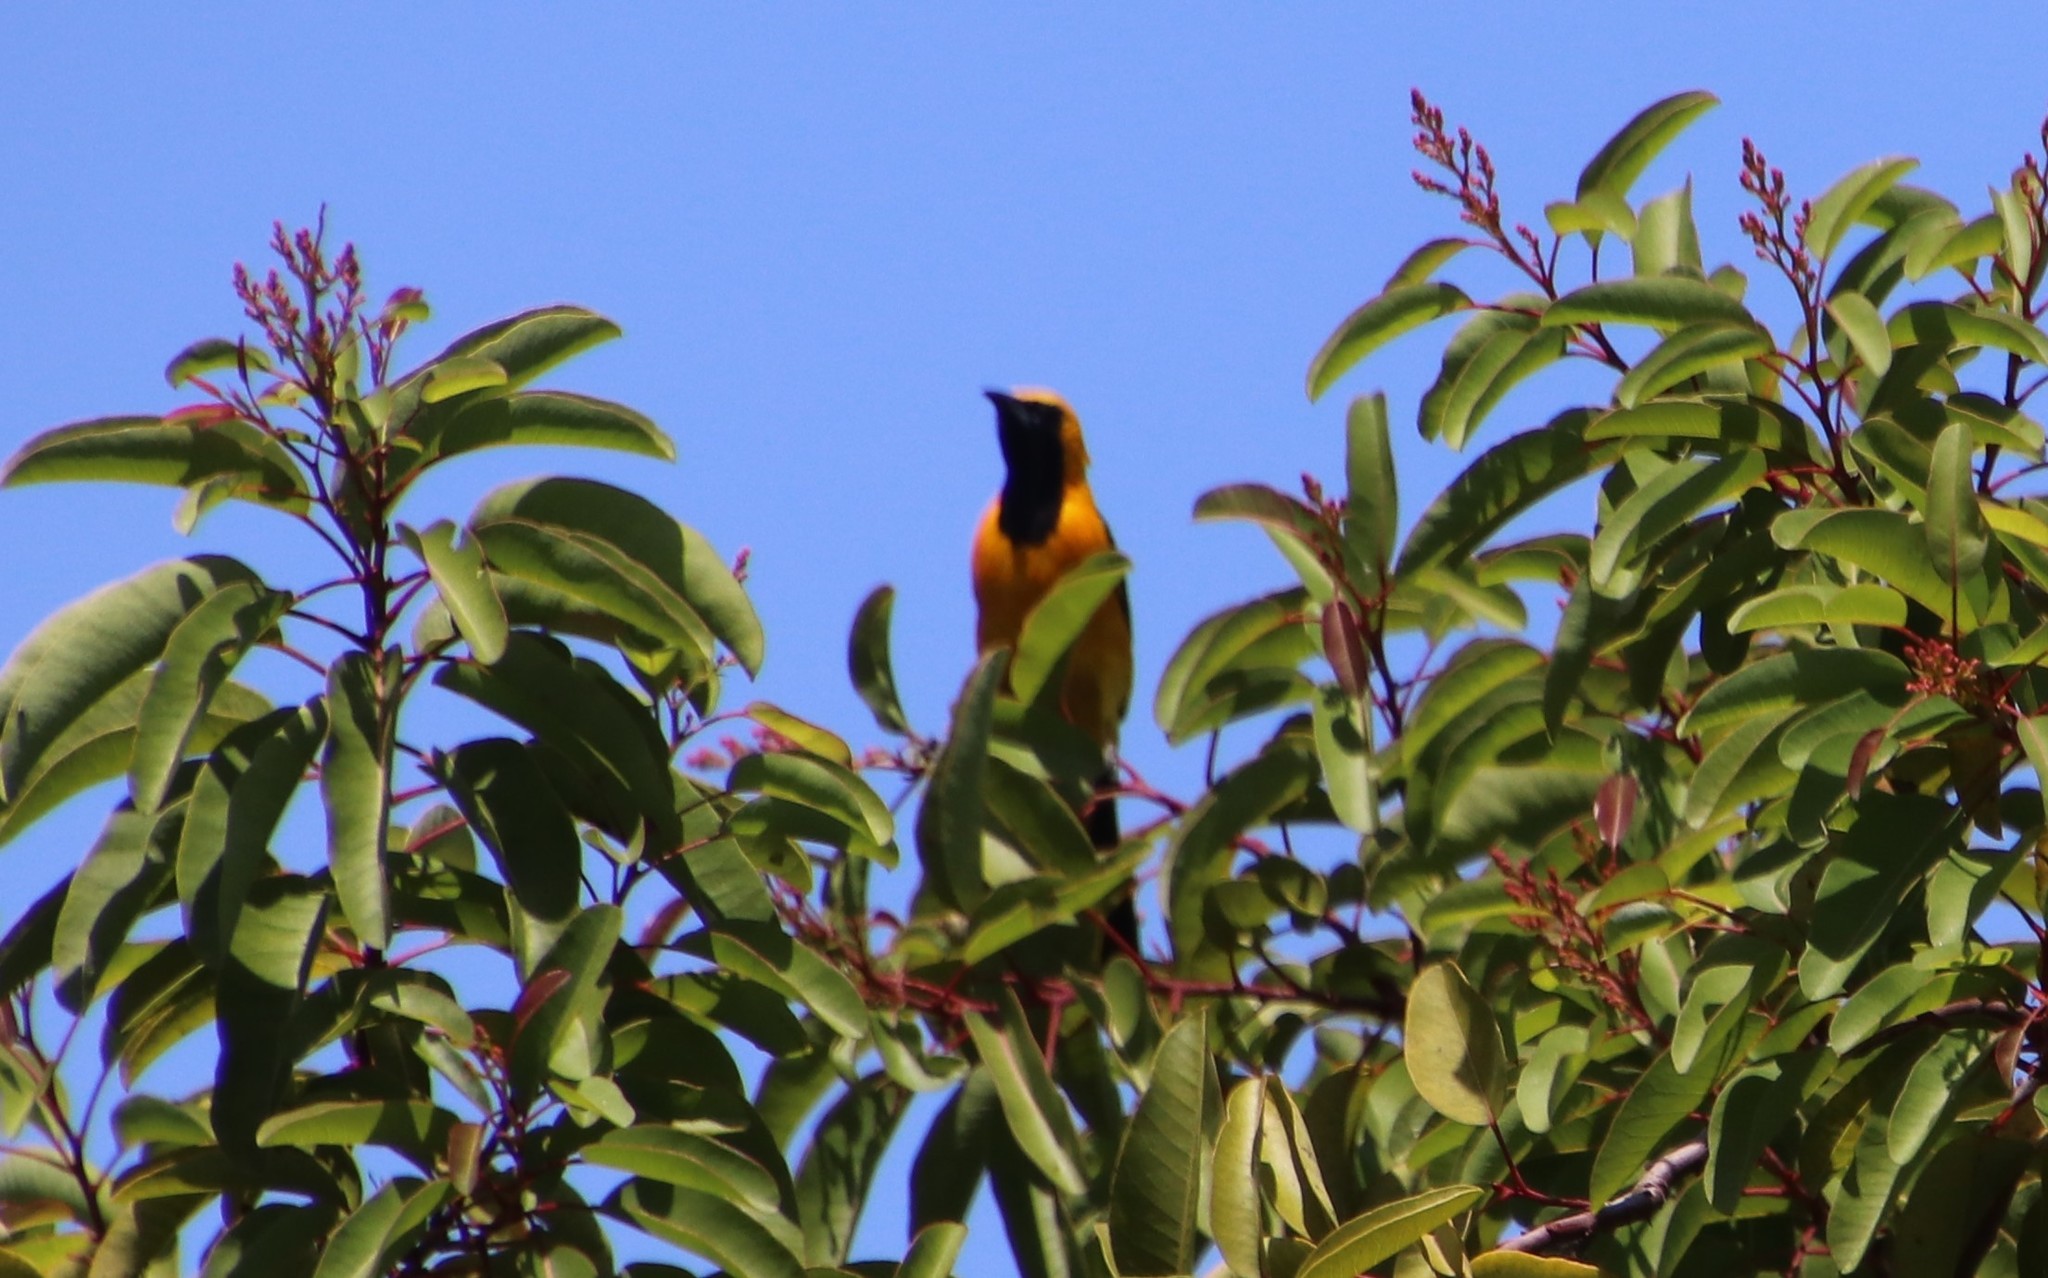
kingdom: Animalia
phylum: Chordata
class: Aves
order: Passeriformes
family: Icteridae
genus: Icterus
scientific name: Icterus cucullatus
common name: Hooded oriole
